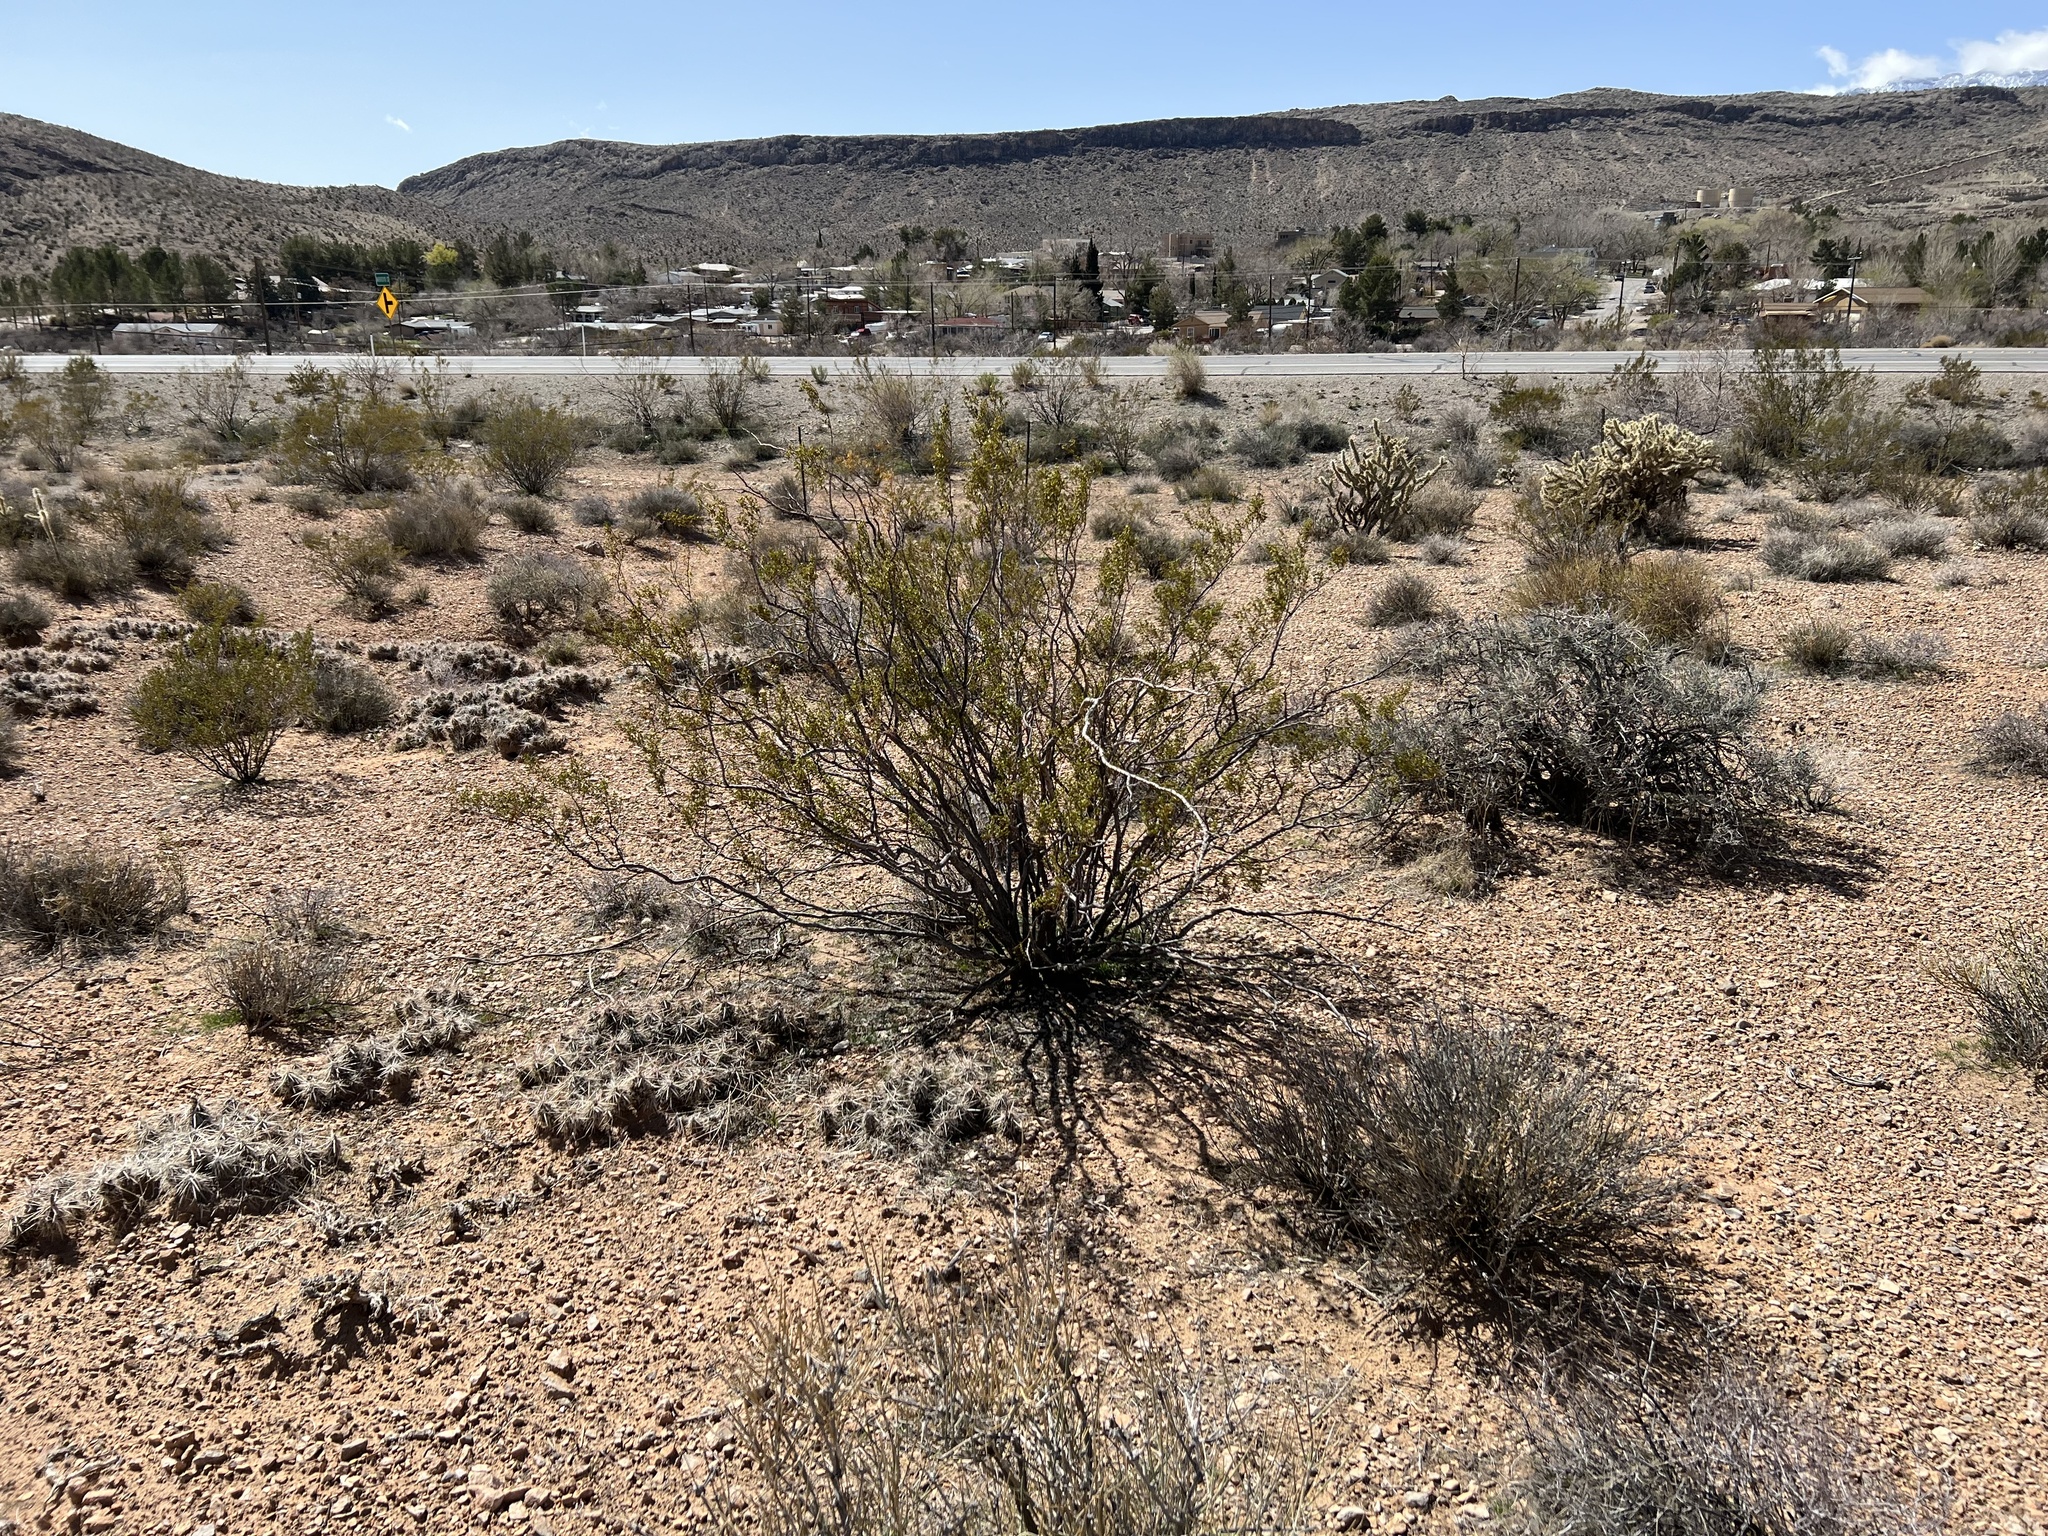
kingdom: Plantae
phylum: Tracheophyta
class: Magnoliopsida
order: Zygophyllales
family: Zygophyllaceae
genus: Larrea
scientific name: Larrea tridentata
